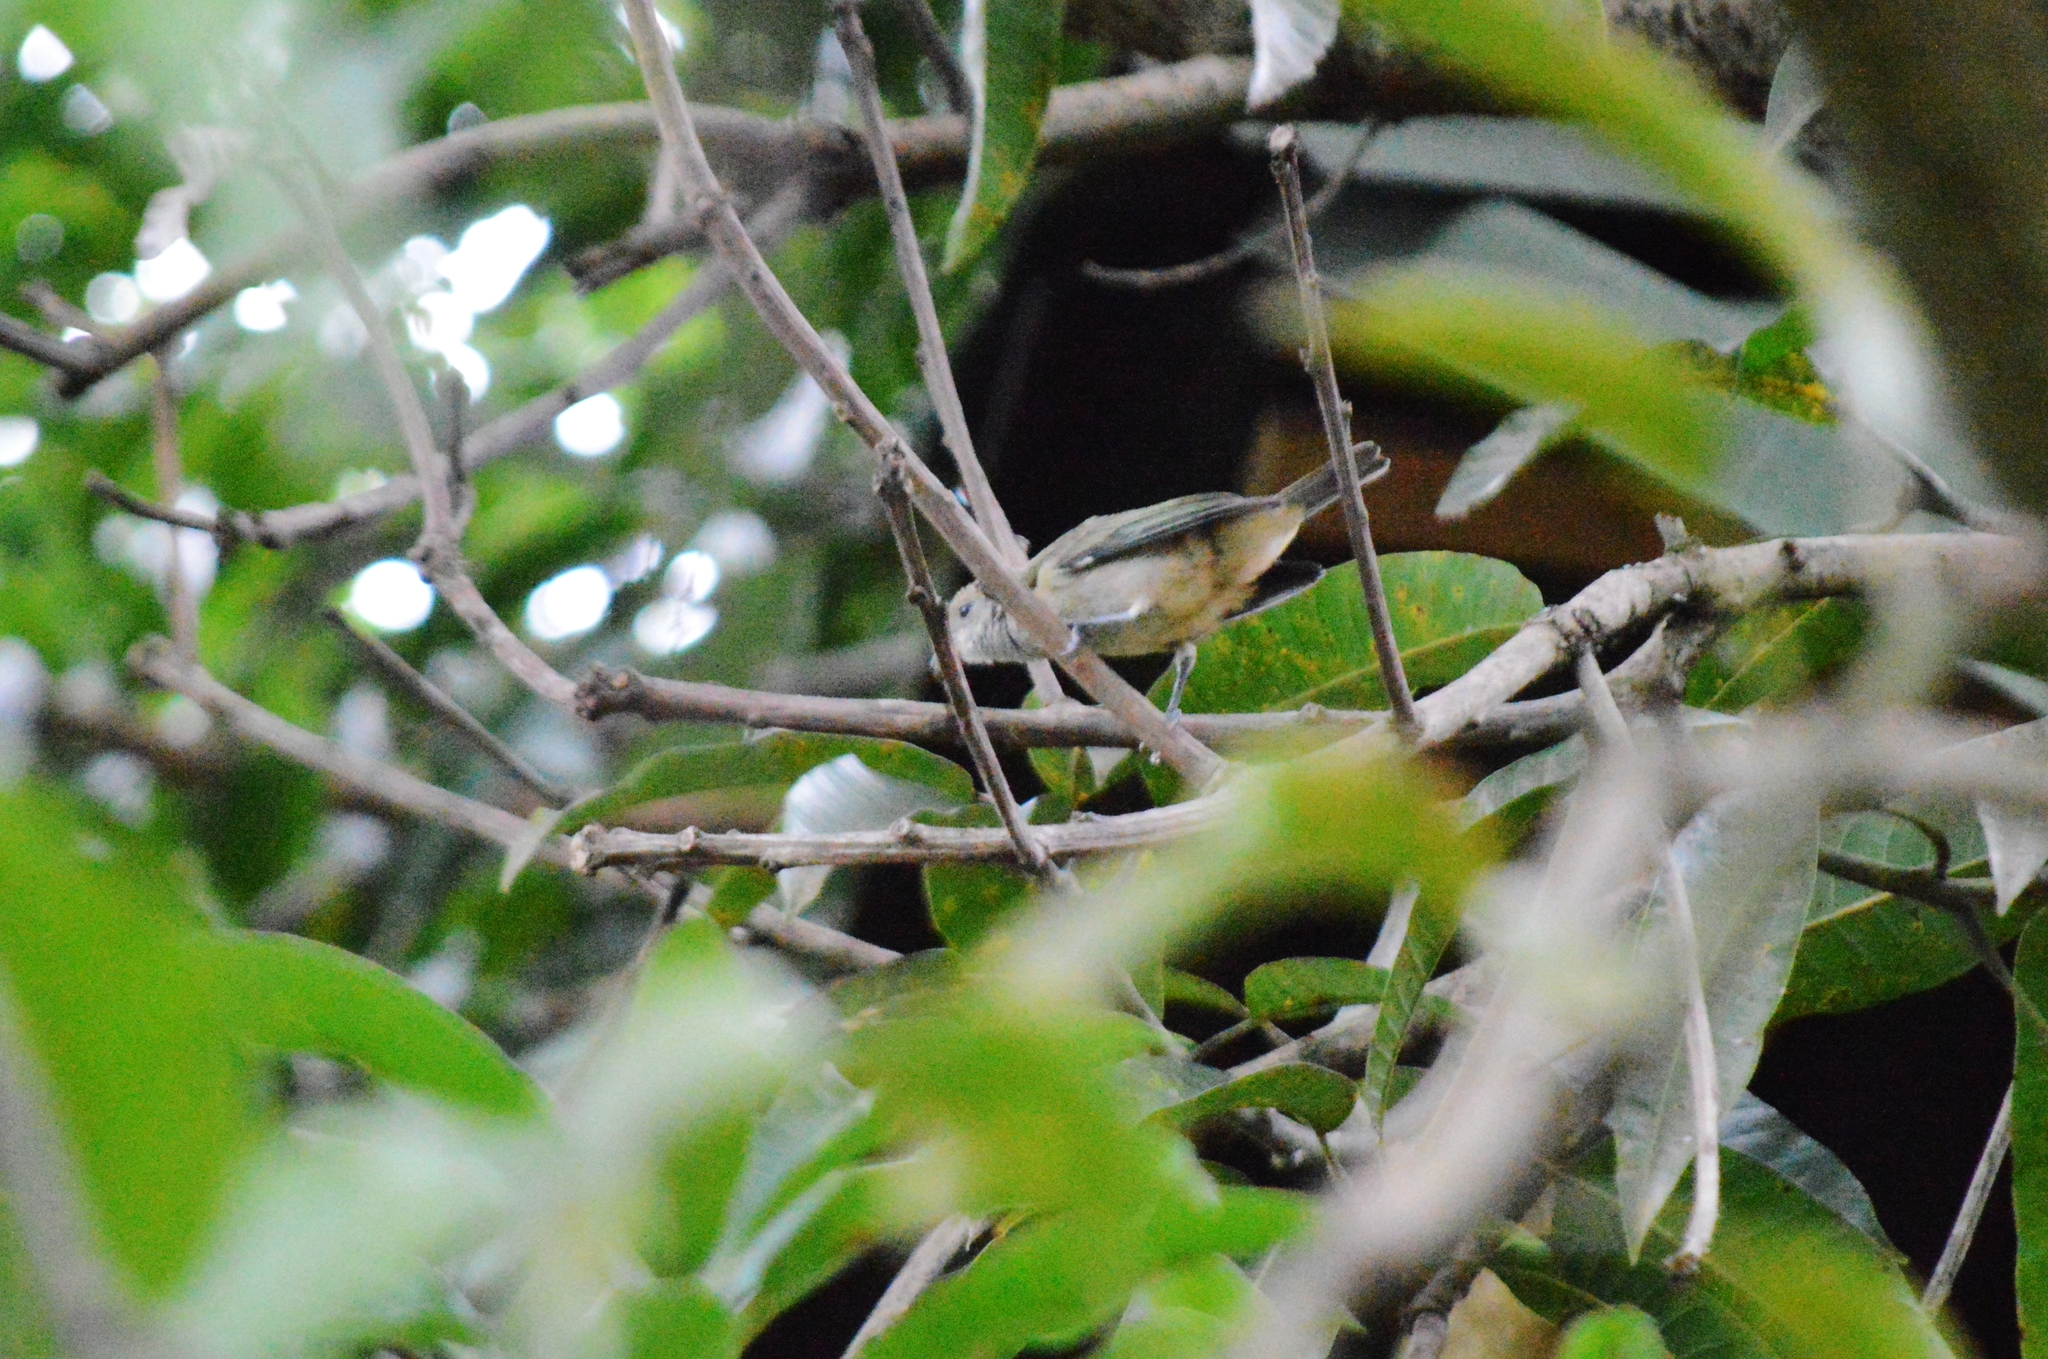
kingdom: Animalia
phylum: Chordata
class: Aves
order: Passeriformes
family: Thraupidae
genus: Stilpnia
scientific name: Stilpnia cayana
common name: Burnished-buff tanager
